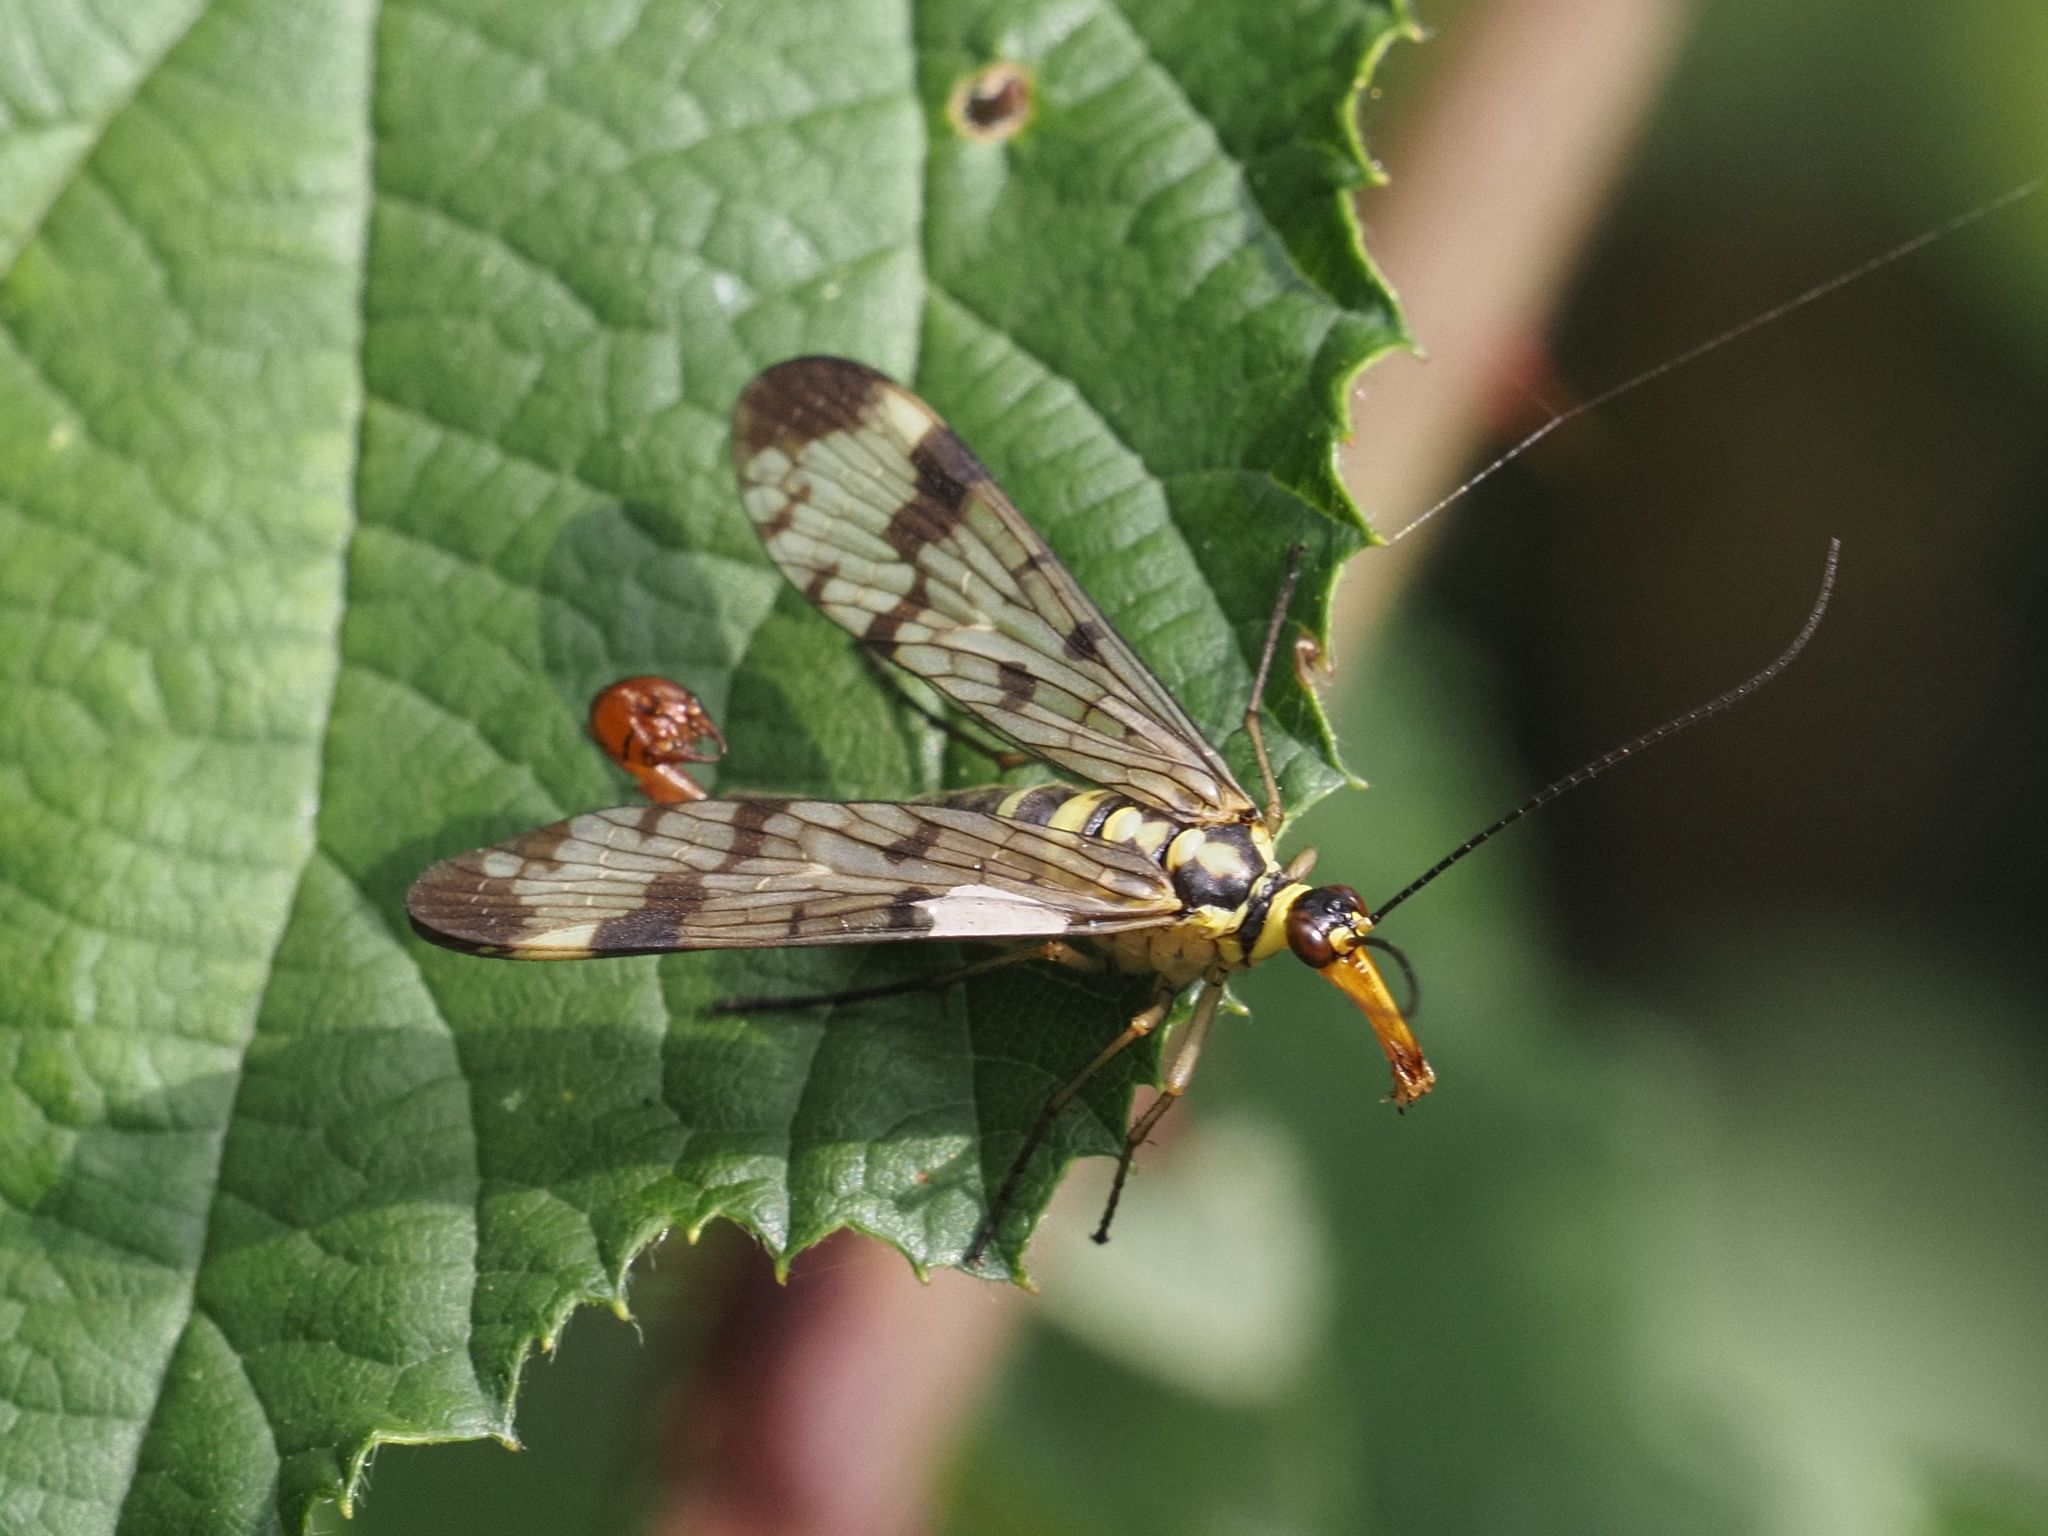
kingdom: Animalia
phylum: Arthropoda
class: Insecta
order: Mecoptera
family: Panorpidae
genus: Panorpa
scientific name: Panorpa communis
